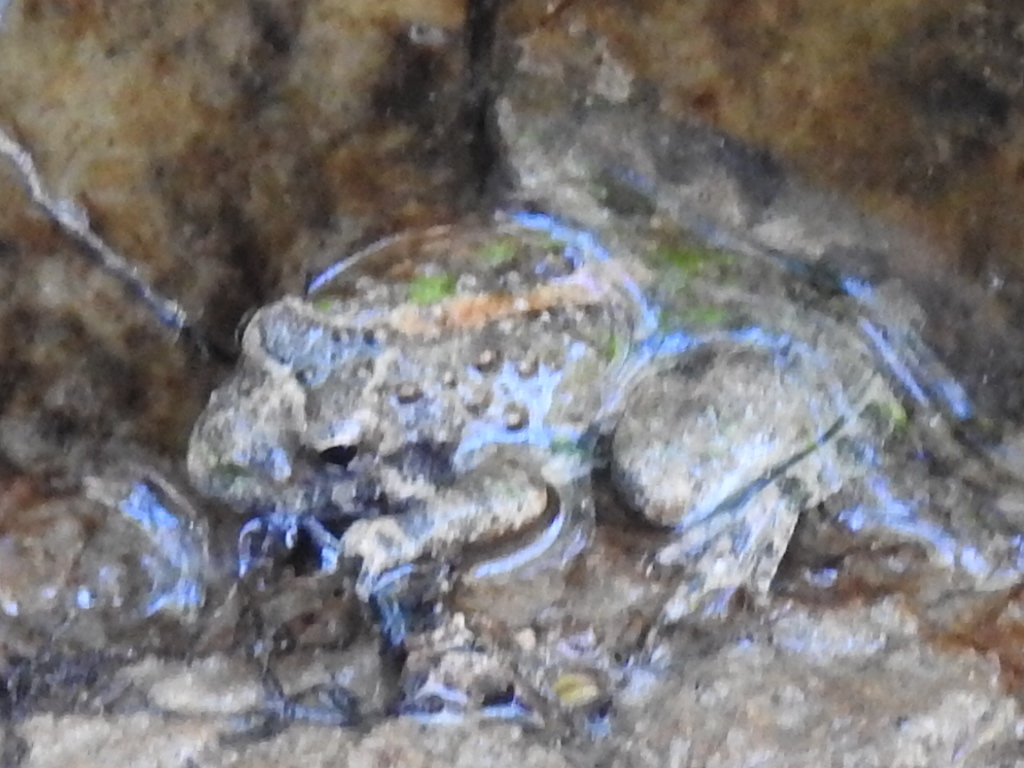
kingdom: Animalia
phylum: Chordata
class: Amphibia
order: Anura
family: Hylidae
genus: Acris
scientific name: Acris blanchardi
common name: Blanchard's cricket frog
